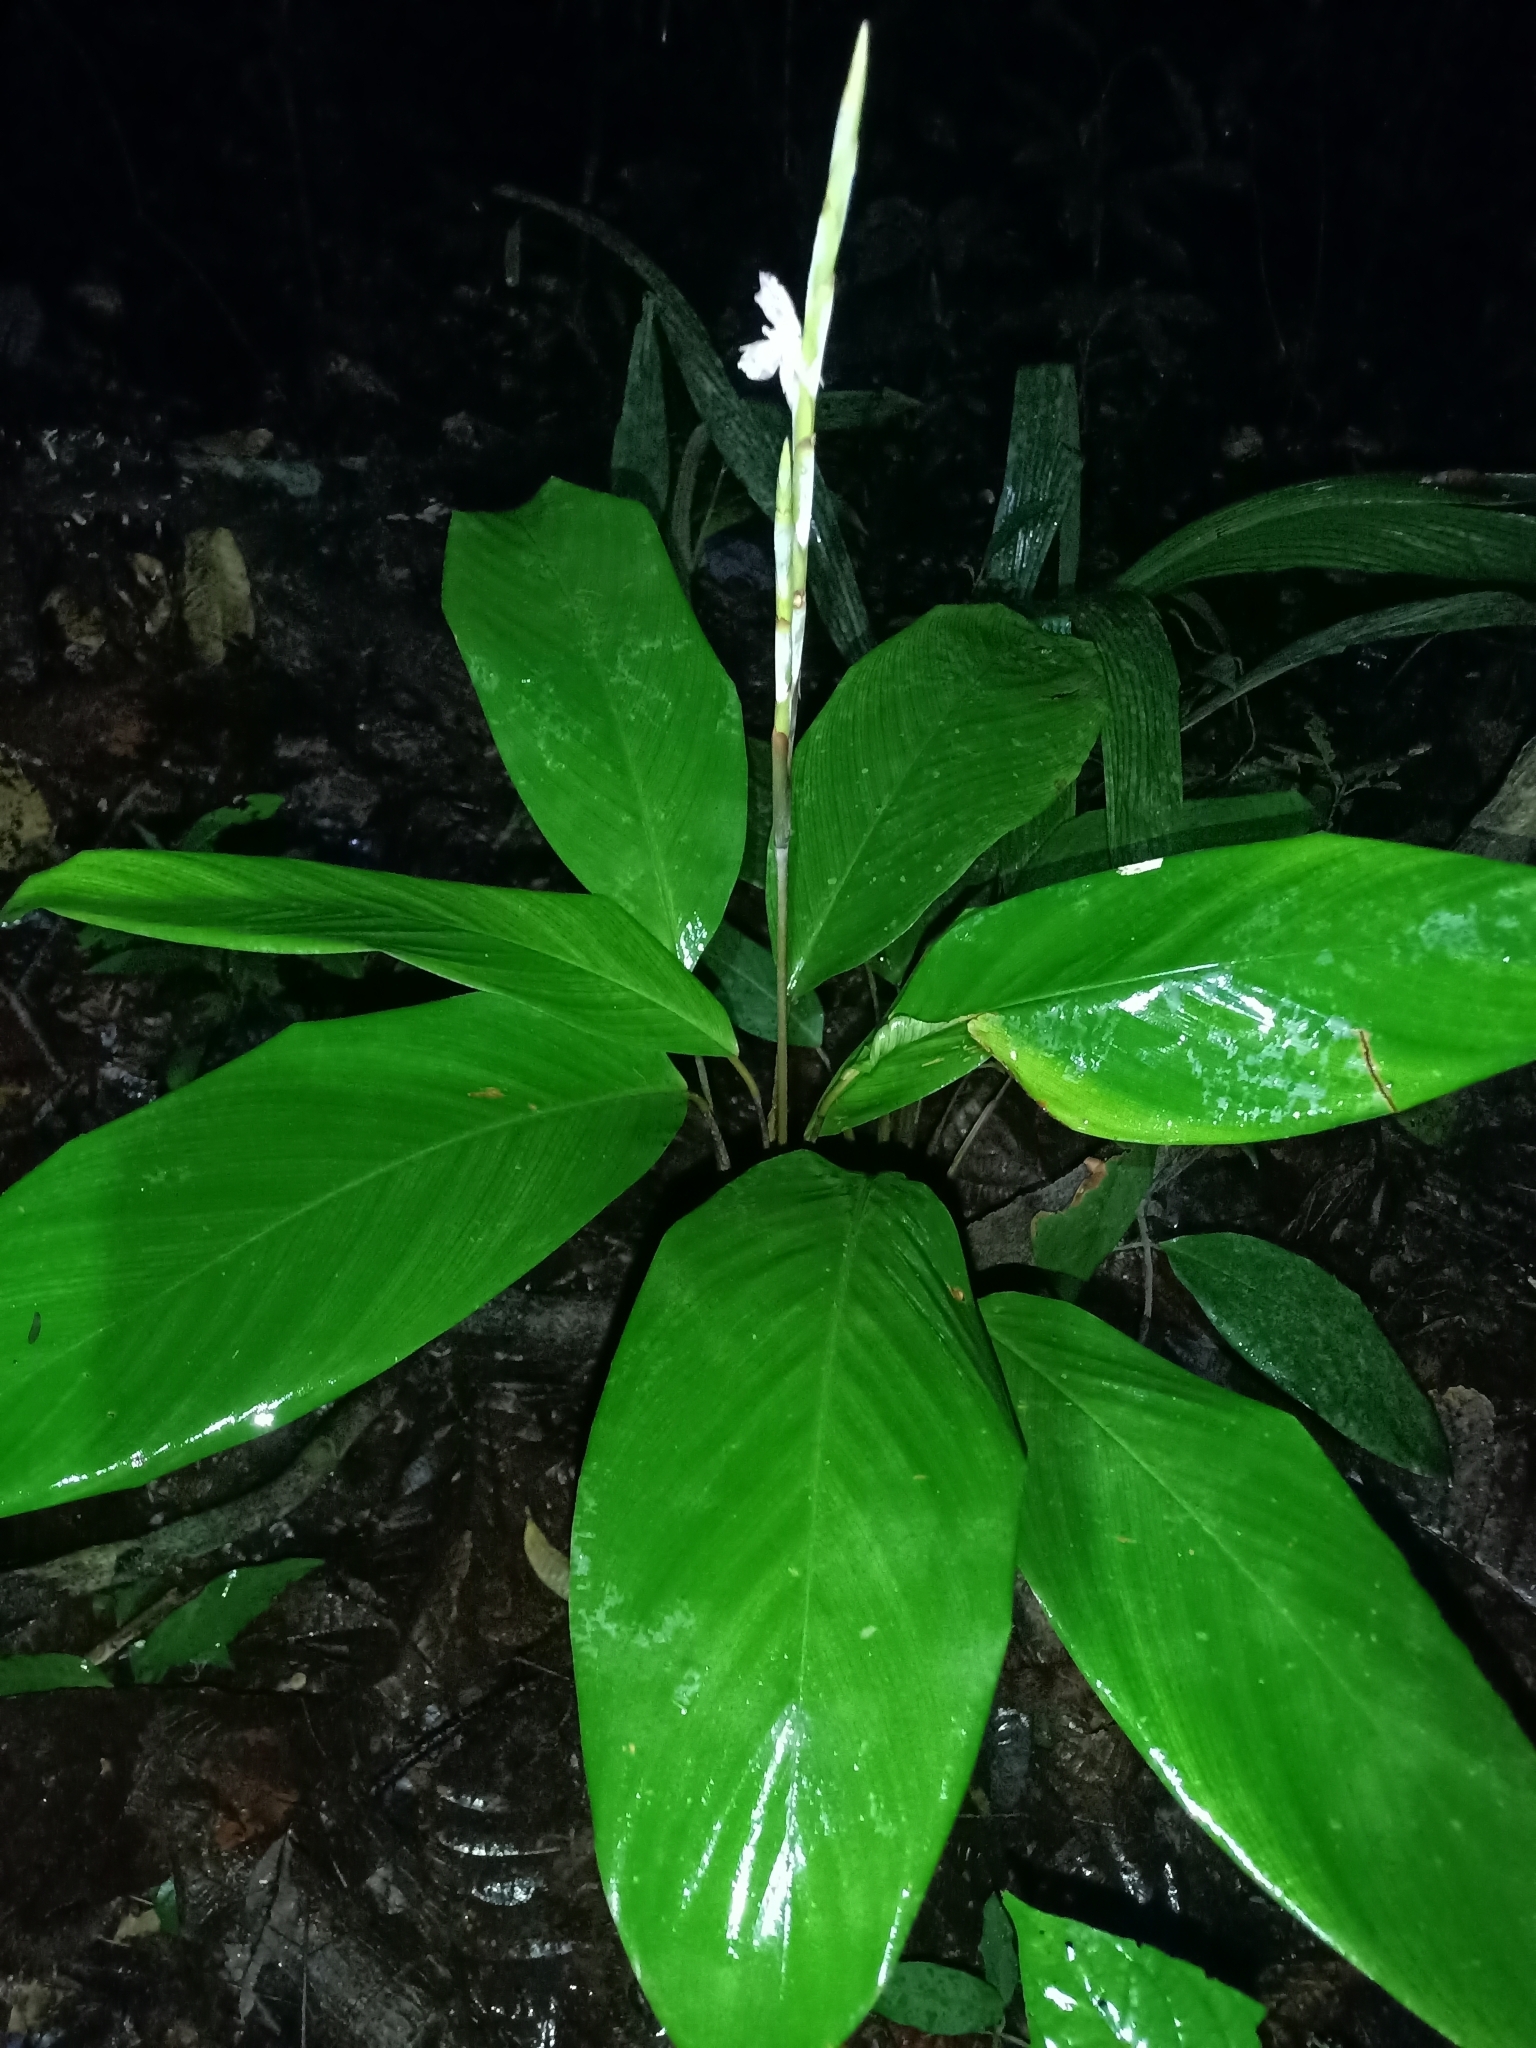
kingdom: Plantae
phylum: Tracheophyta
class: Liliopsida
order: Zingiberales
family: Marantaceae
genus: Ischnosiphon
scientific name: Ischnosiphon petiolatus
